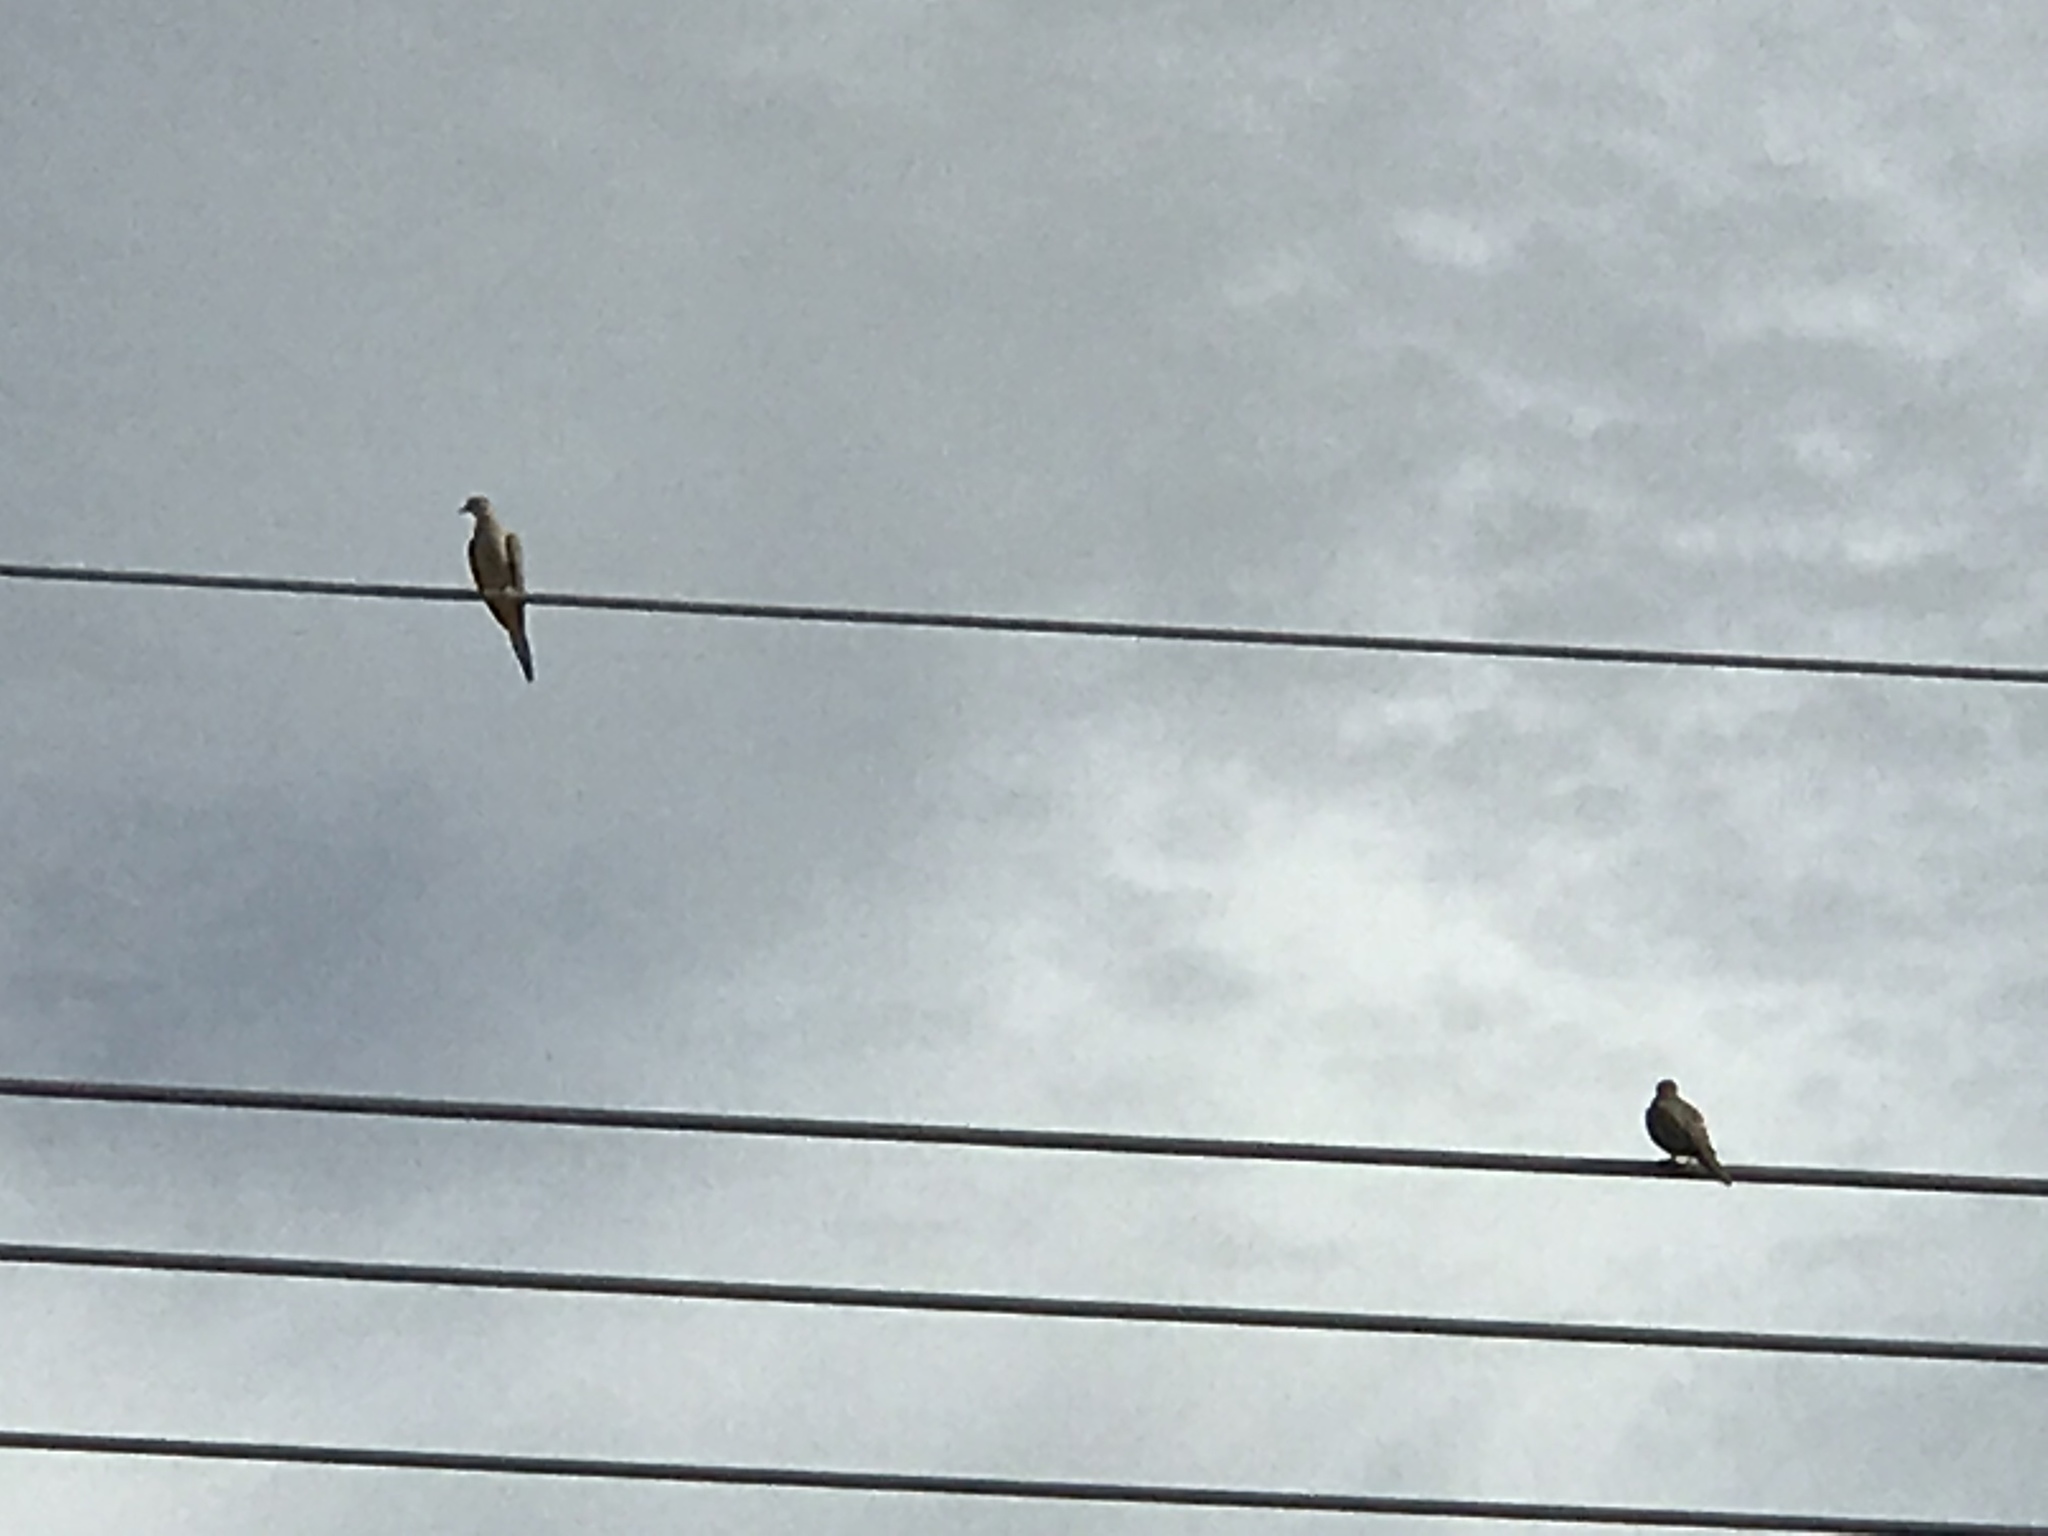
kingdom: Animalia
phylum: Chordata
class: Aves
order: Columbiformes
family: Columbidae
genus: Zenaida
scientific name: Zenaida macroura
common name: Mourning dove
